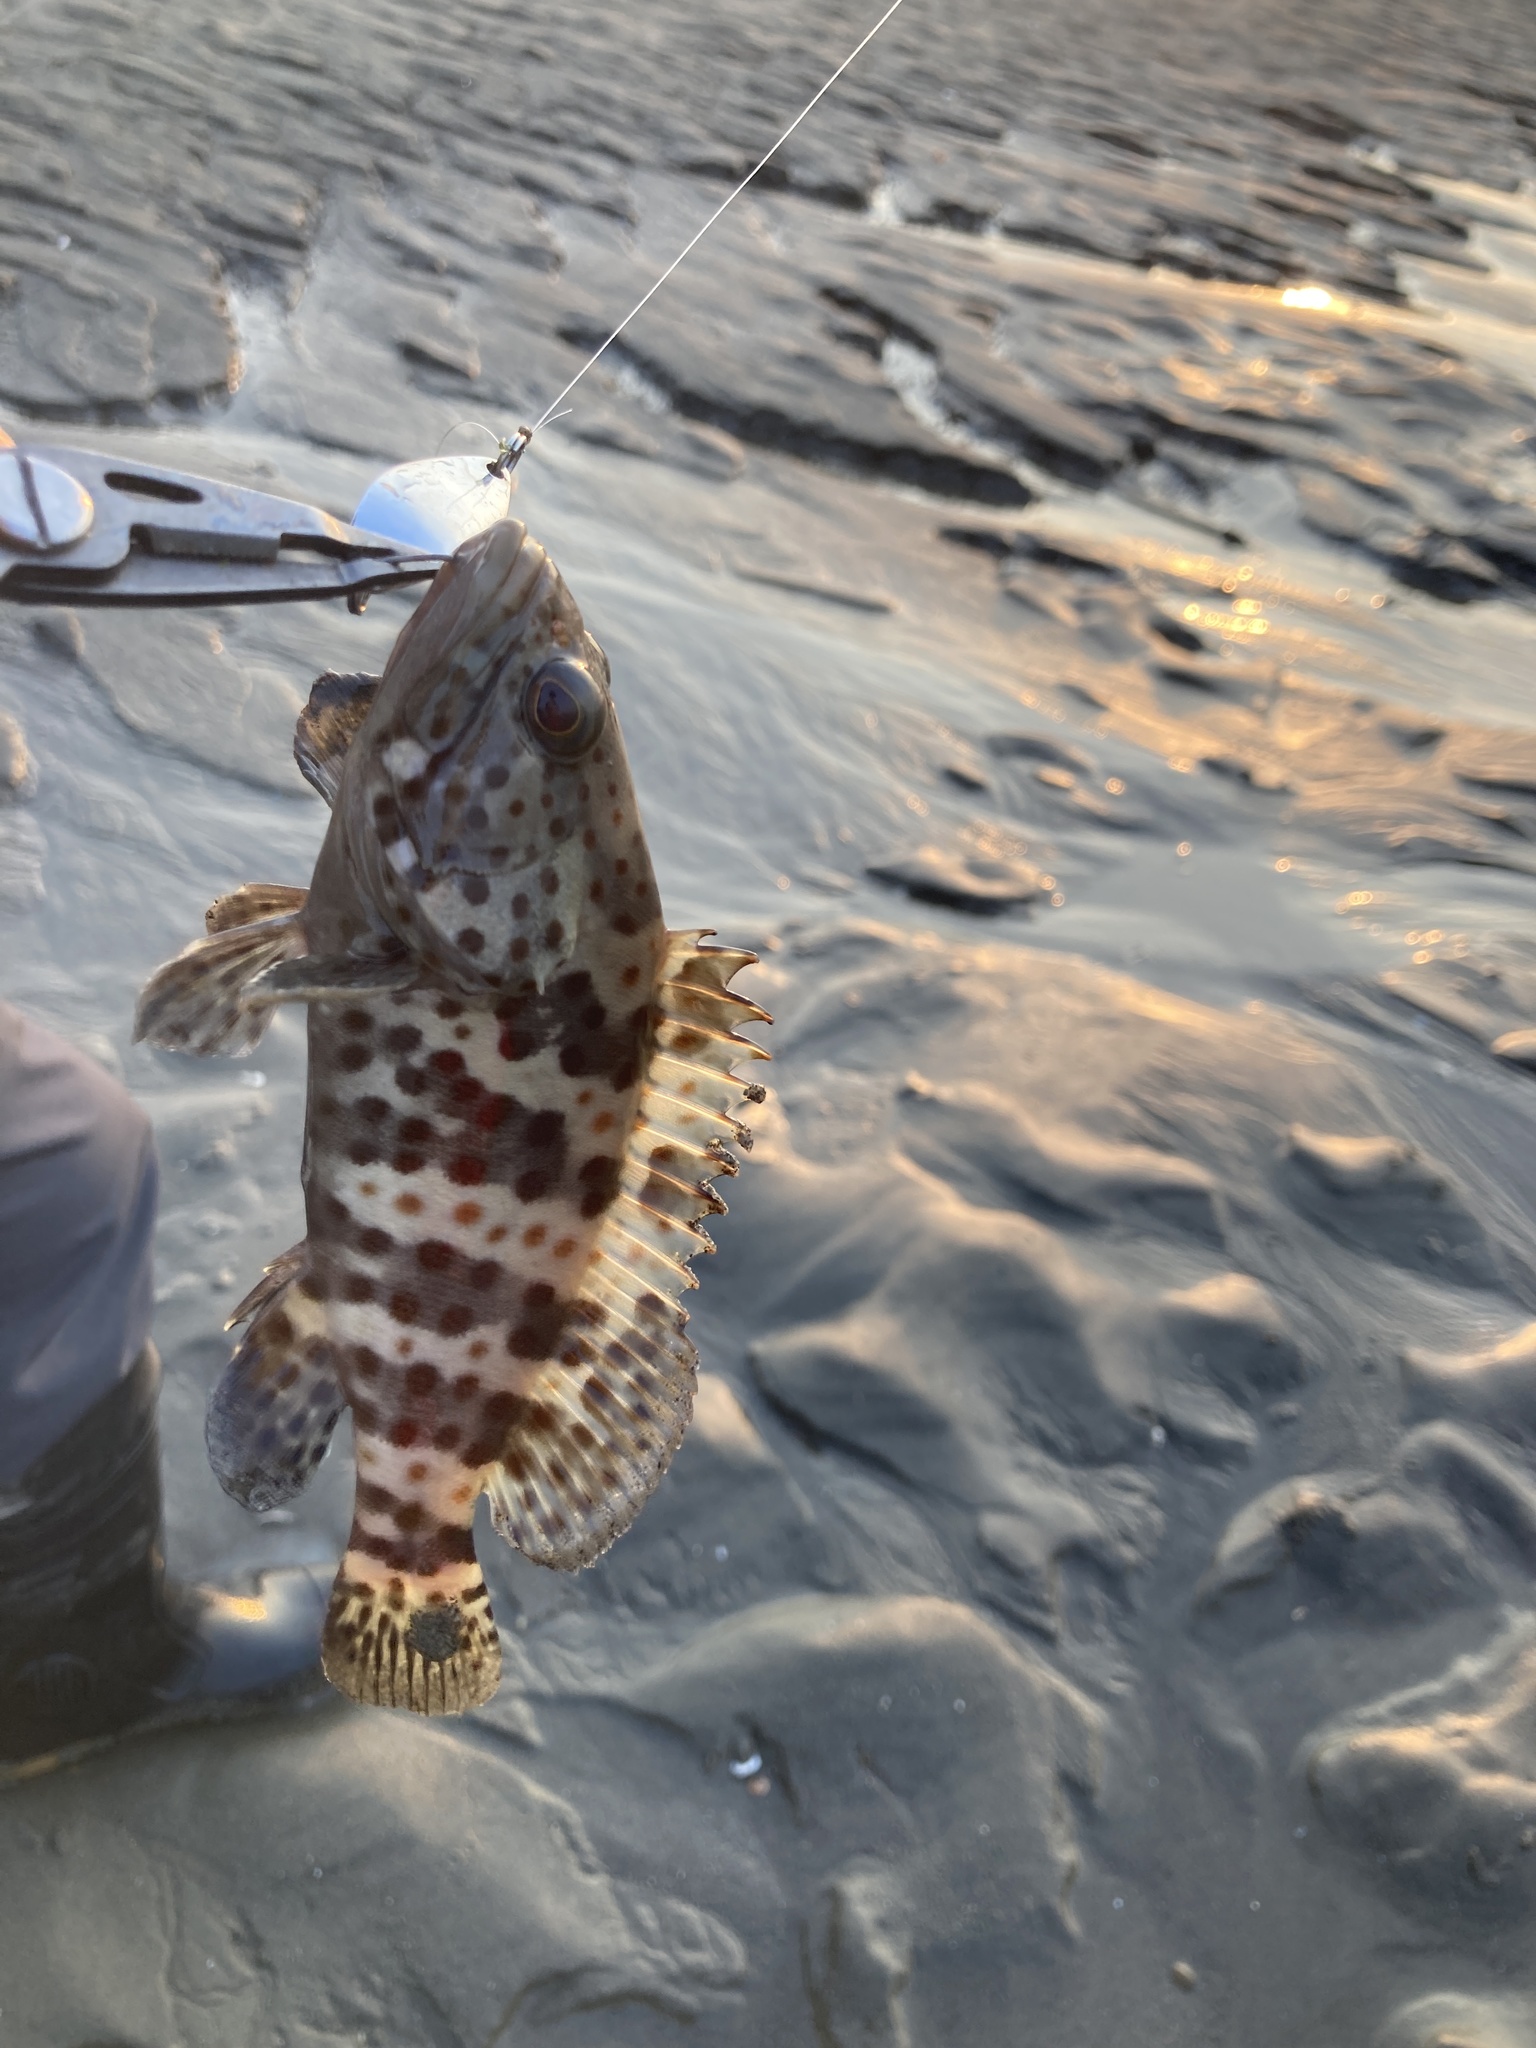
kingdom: Animalia
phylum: Chordata
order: Perciformes
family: Serranidae
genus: Epinephelus
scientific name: Epinephelus coioides
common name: Orange-spotted grouper
